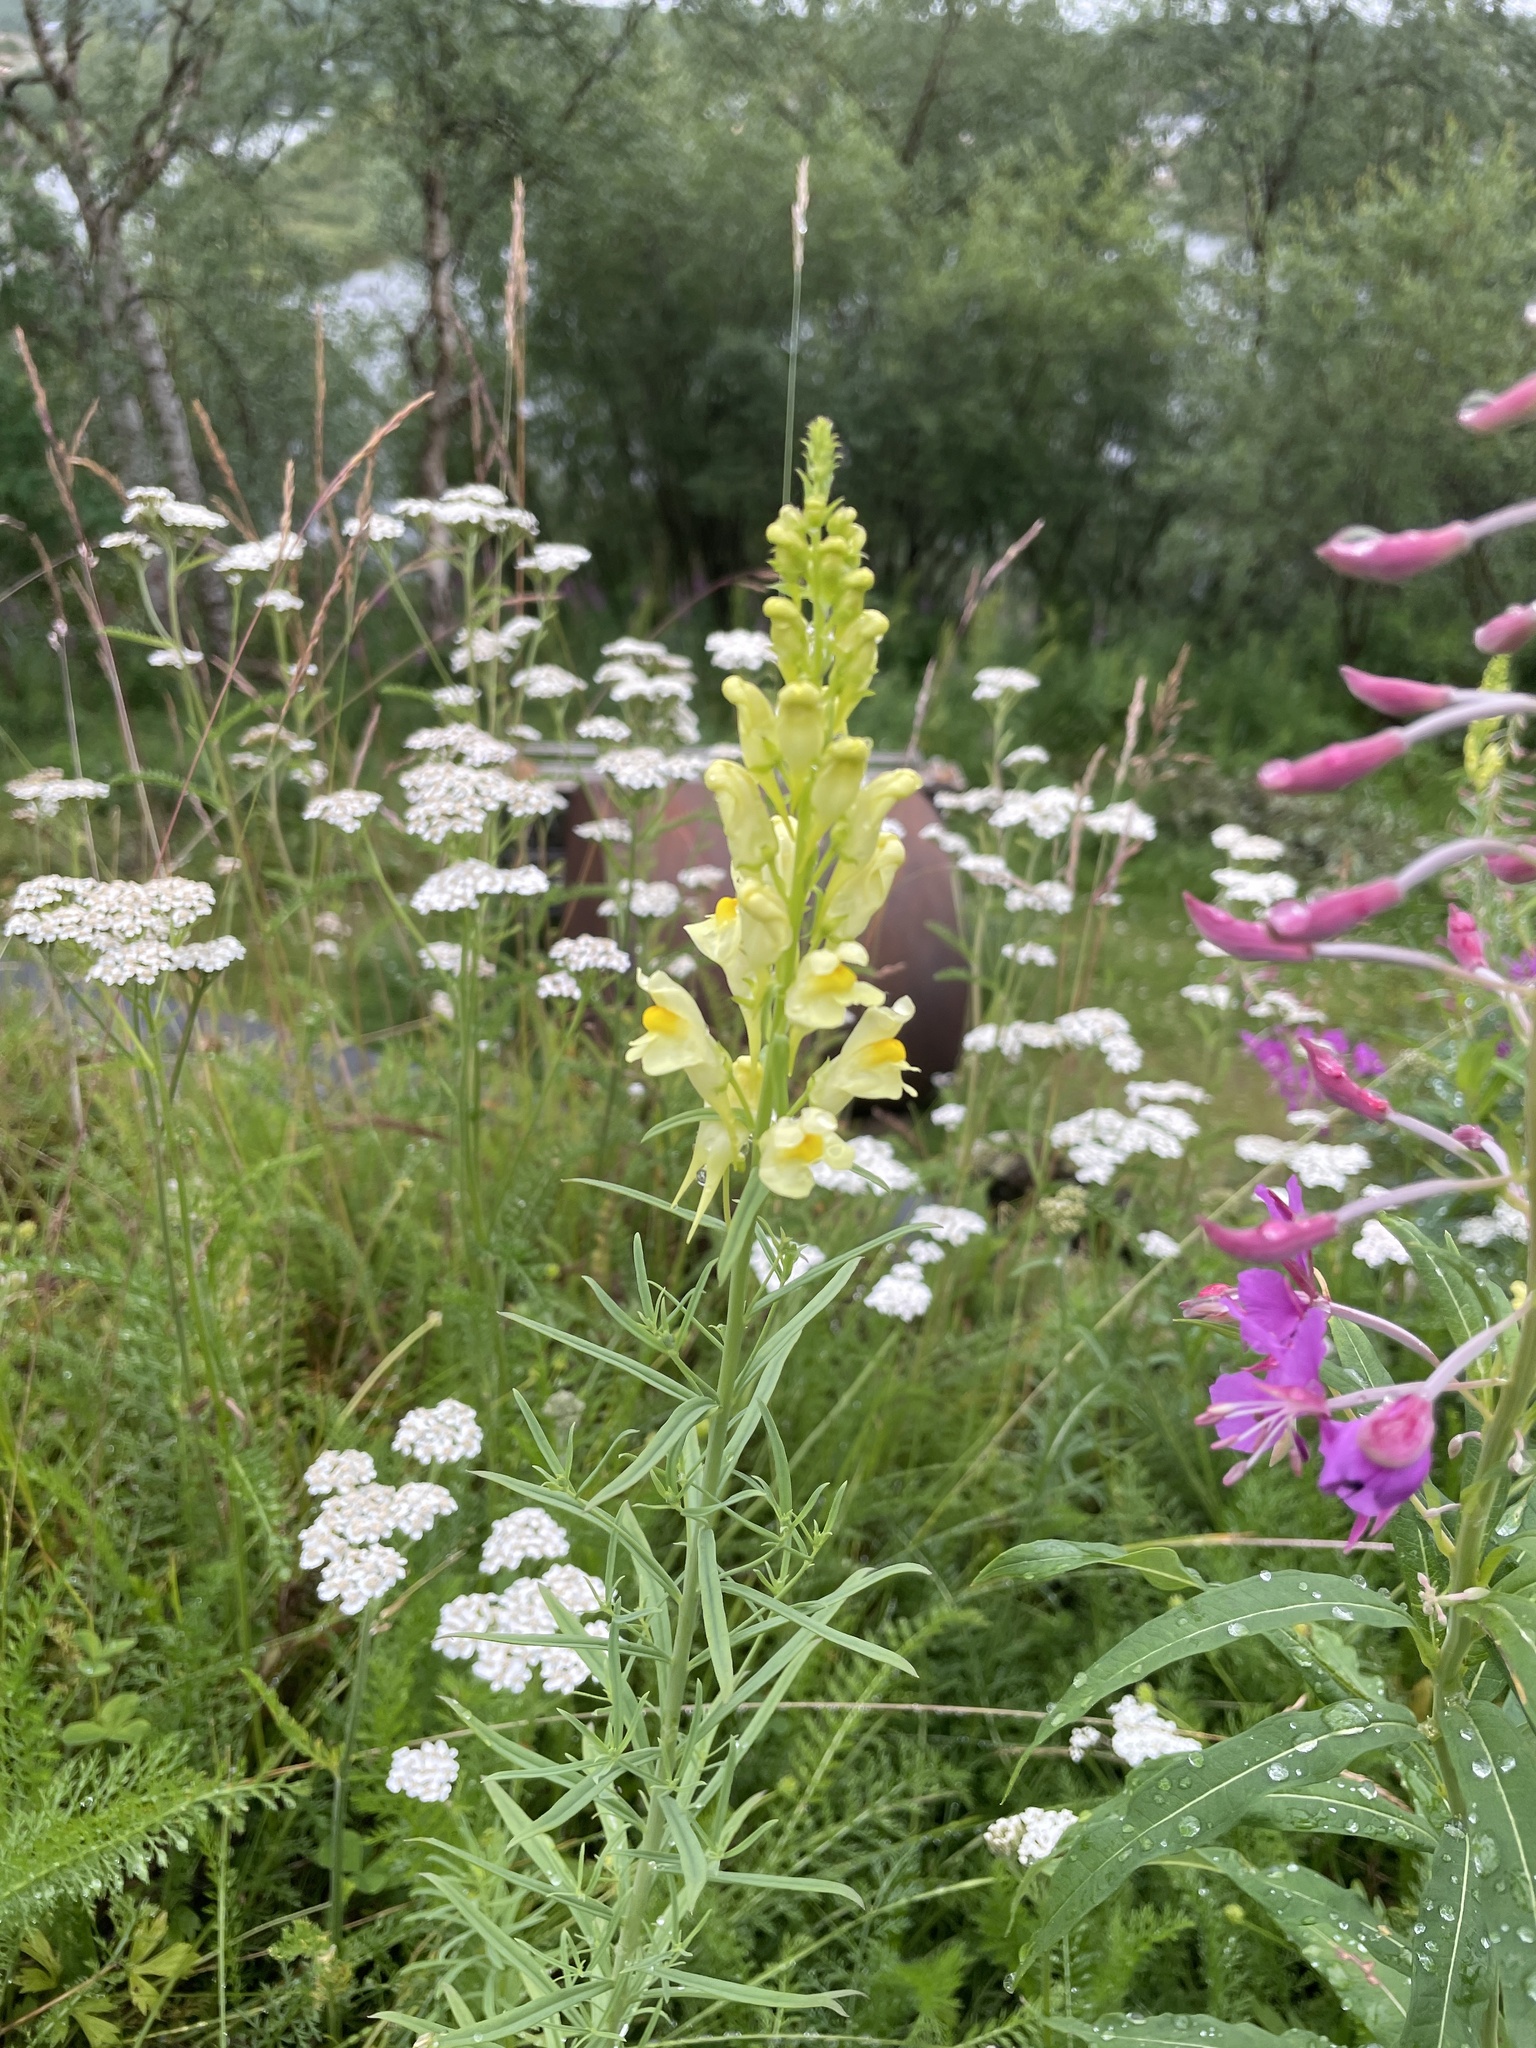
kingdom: Plantae
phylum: Tracheophyta
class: Magnoliopsida
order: Lamiales
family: Plantaginaceae
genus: Linaria
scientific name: Linaria vulgaris
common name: Butter and eggs
